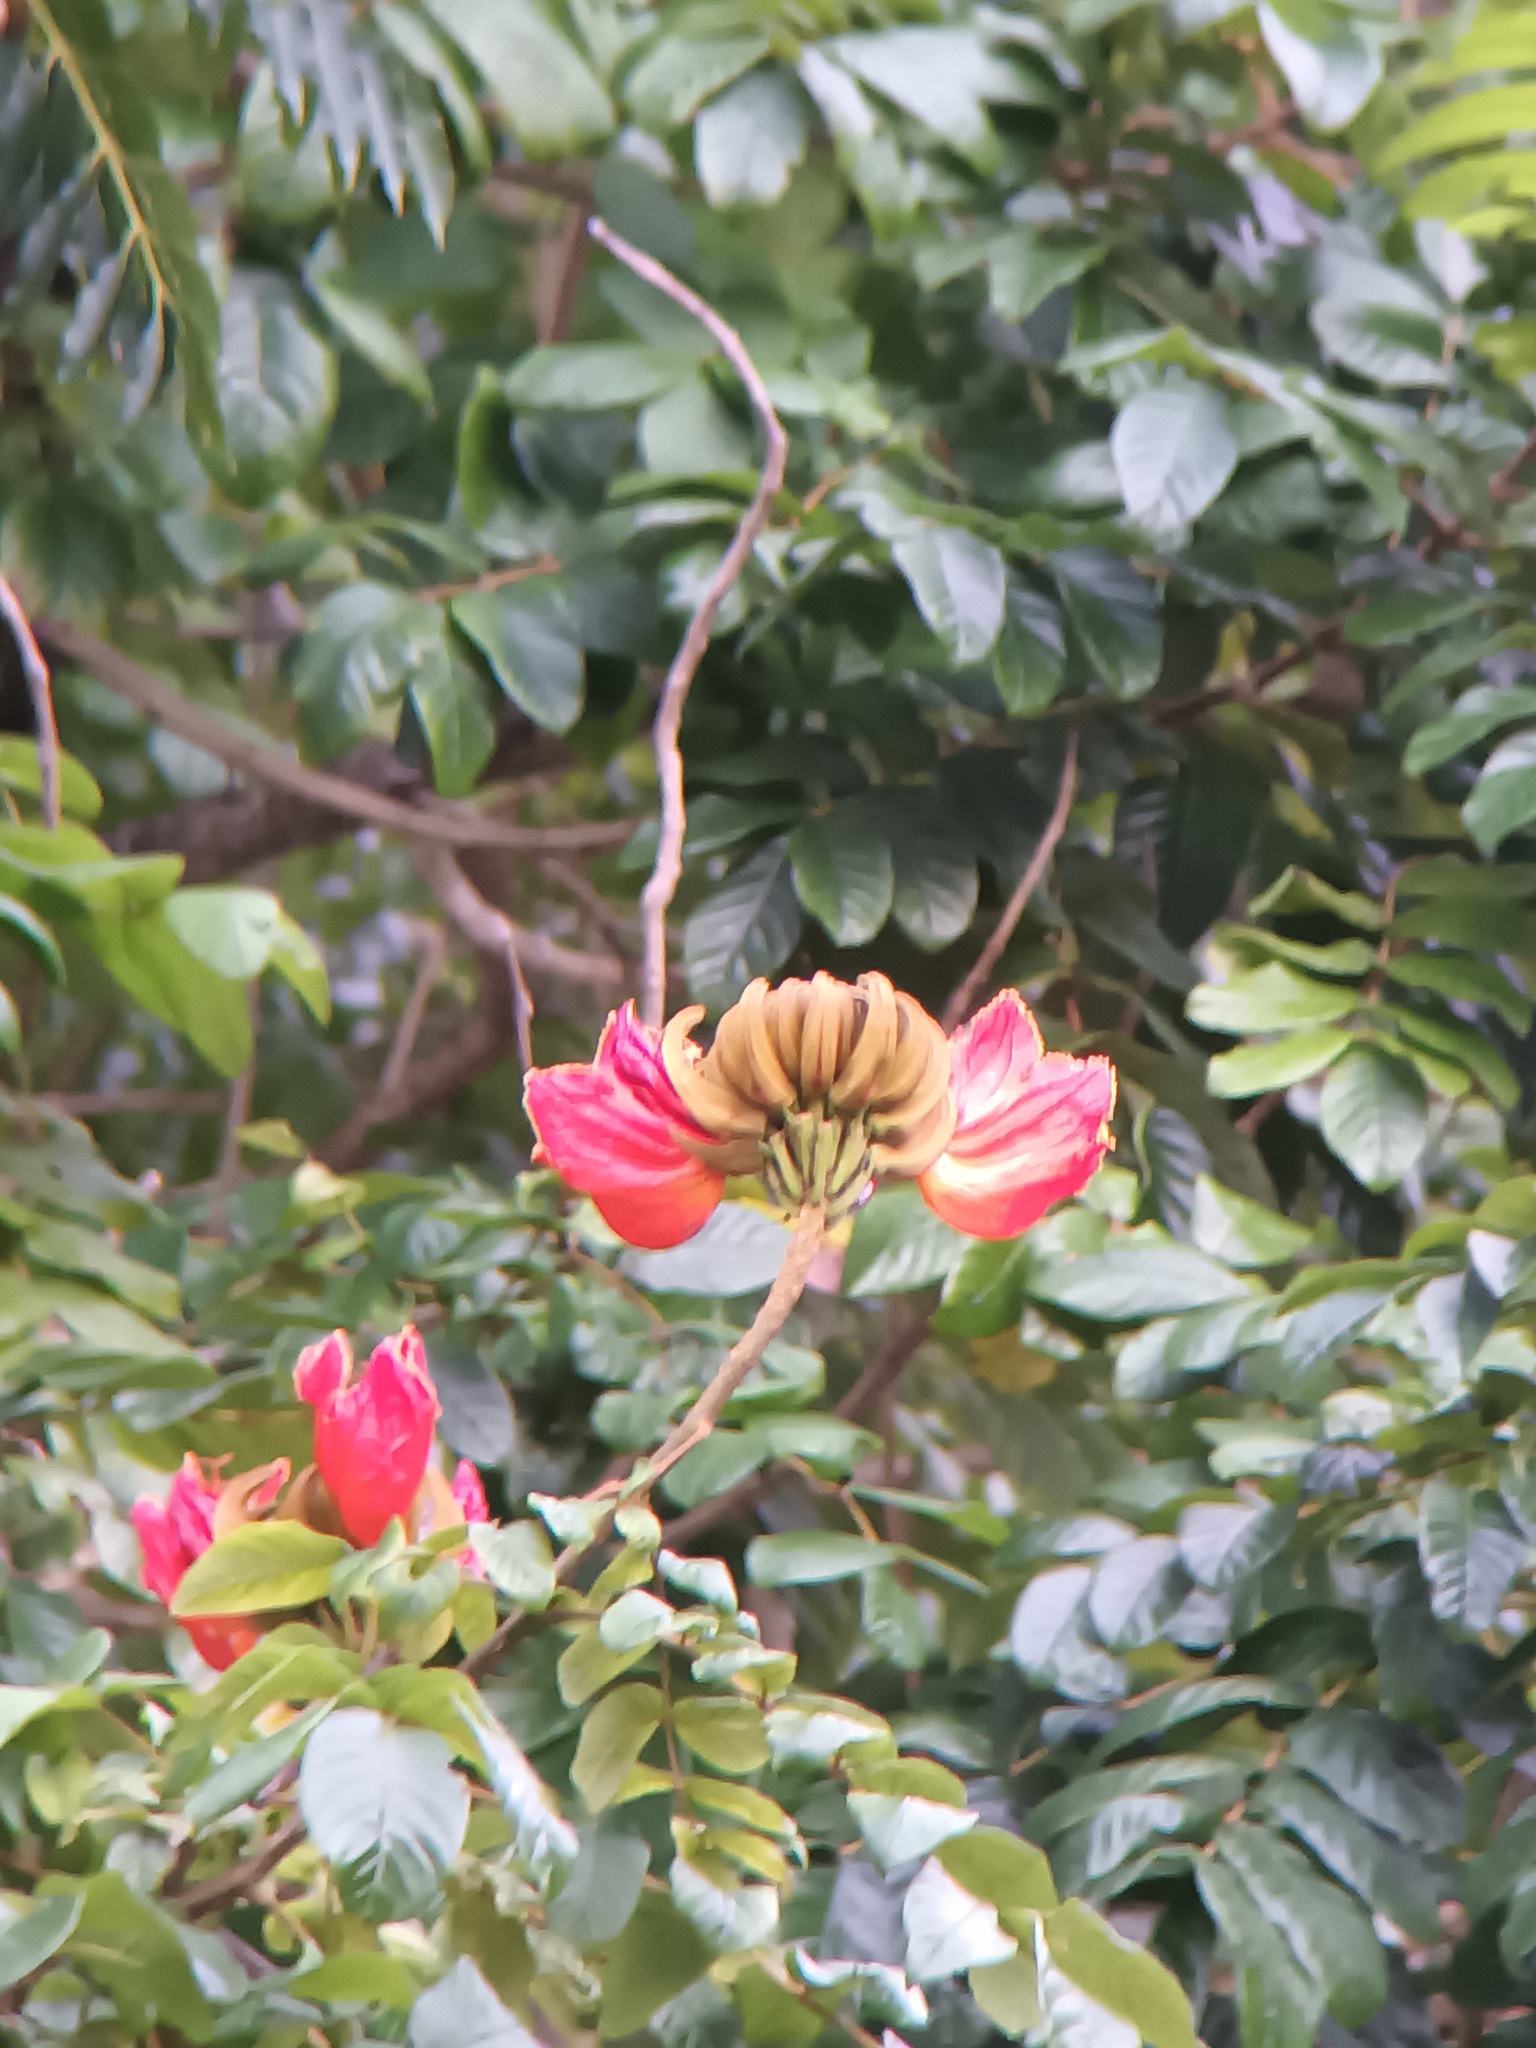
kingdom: Plantae
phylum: Tracheophyta
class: Magnoliopsida
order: Lamiales
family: Bignoniaceae
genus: Spathodea
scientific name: Spathodea campanulata
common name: African tuliptree
